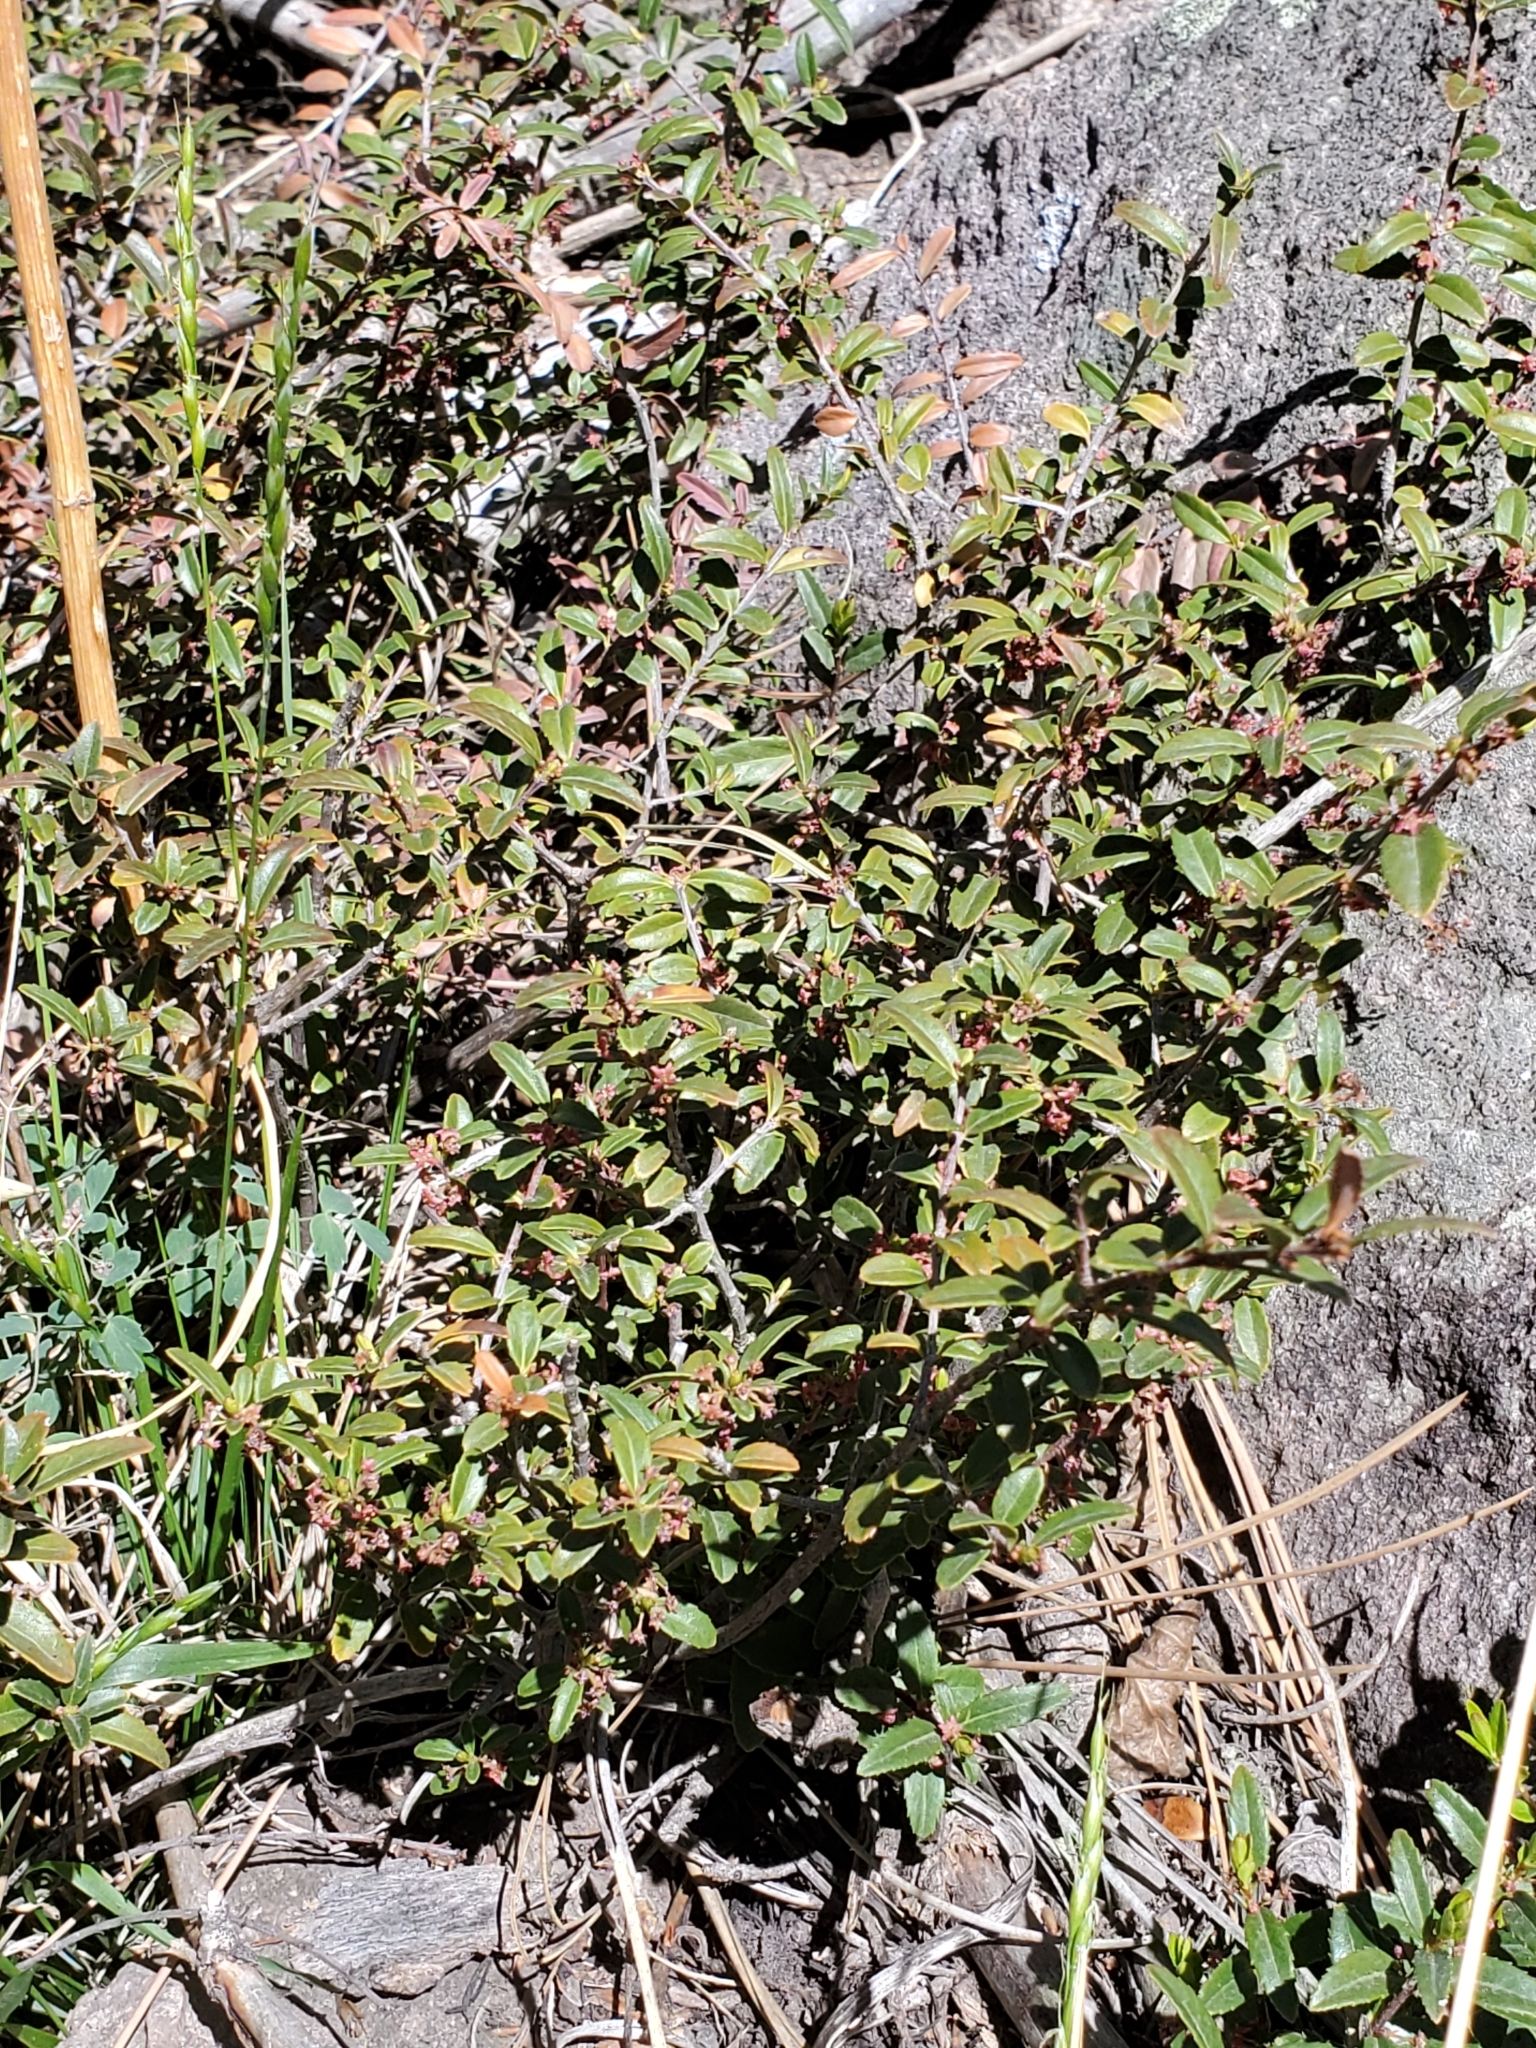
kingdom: Plantae
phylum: Tracheophyta
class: Magnoliopsida
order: Celastrales
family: Celastraceae
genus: Paxistima
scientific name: Paxistima myrsinites
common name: Mountain-lover
